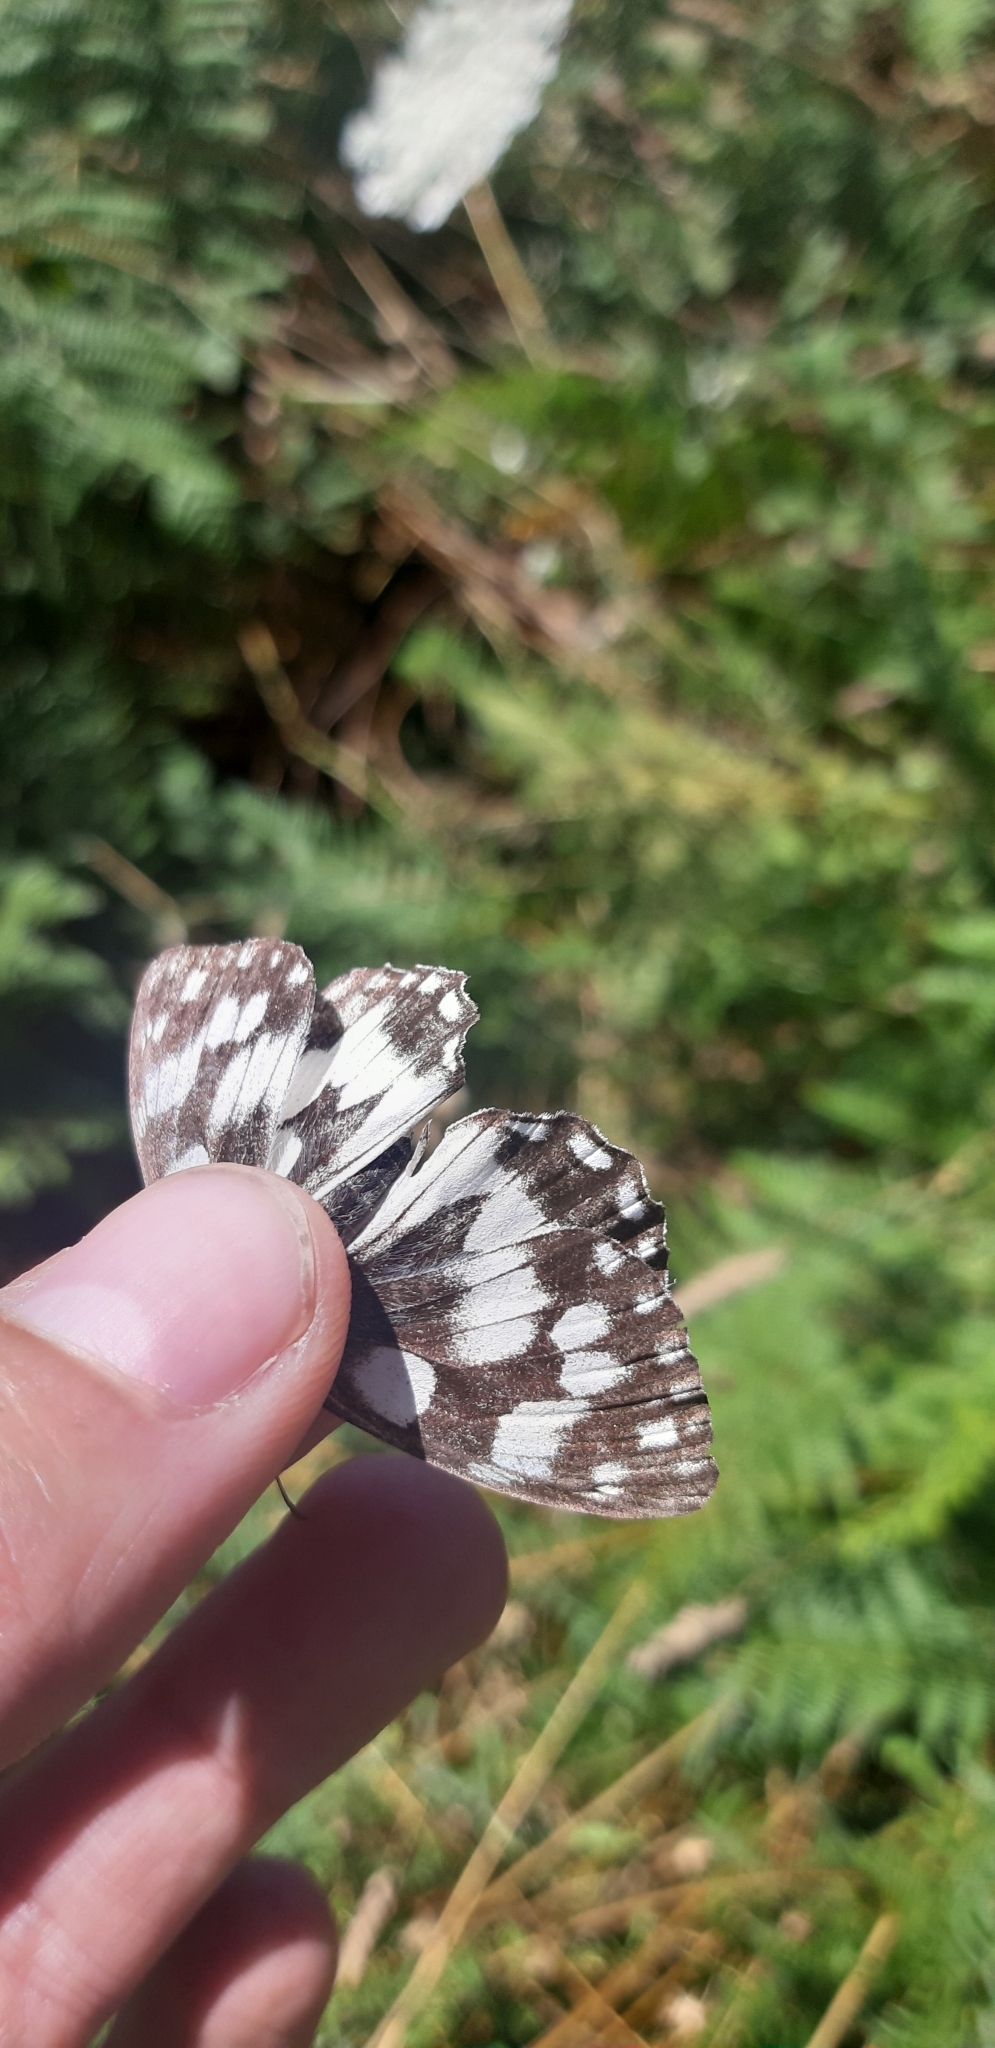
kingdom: Animalia
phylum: Arthropoda
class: Insecta
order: Lepidoptera
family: Nymphalidae
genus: Melanargia
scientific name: Melanargia galathea
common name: Marbled white
